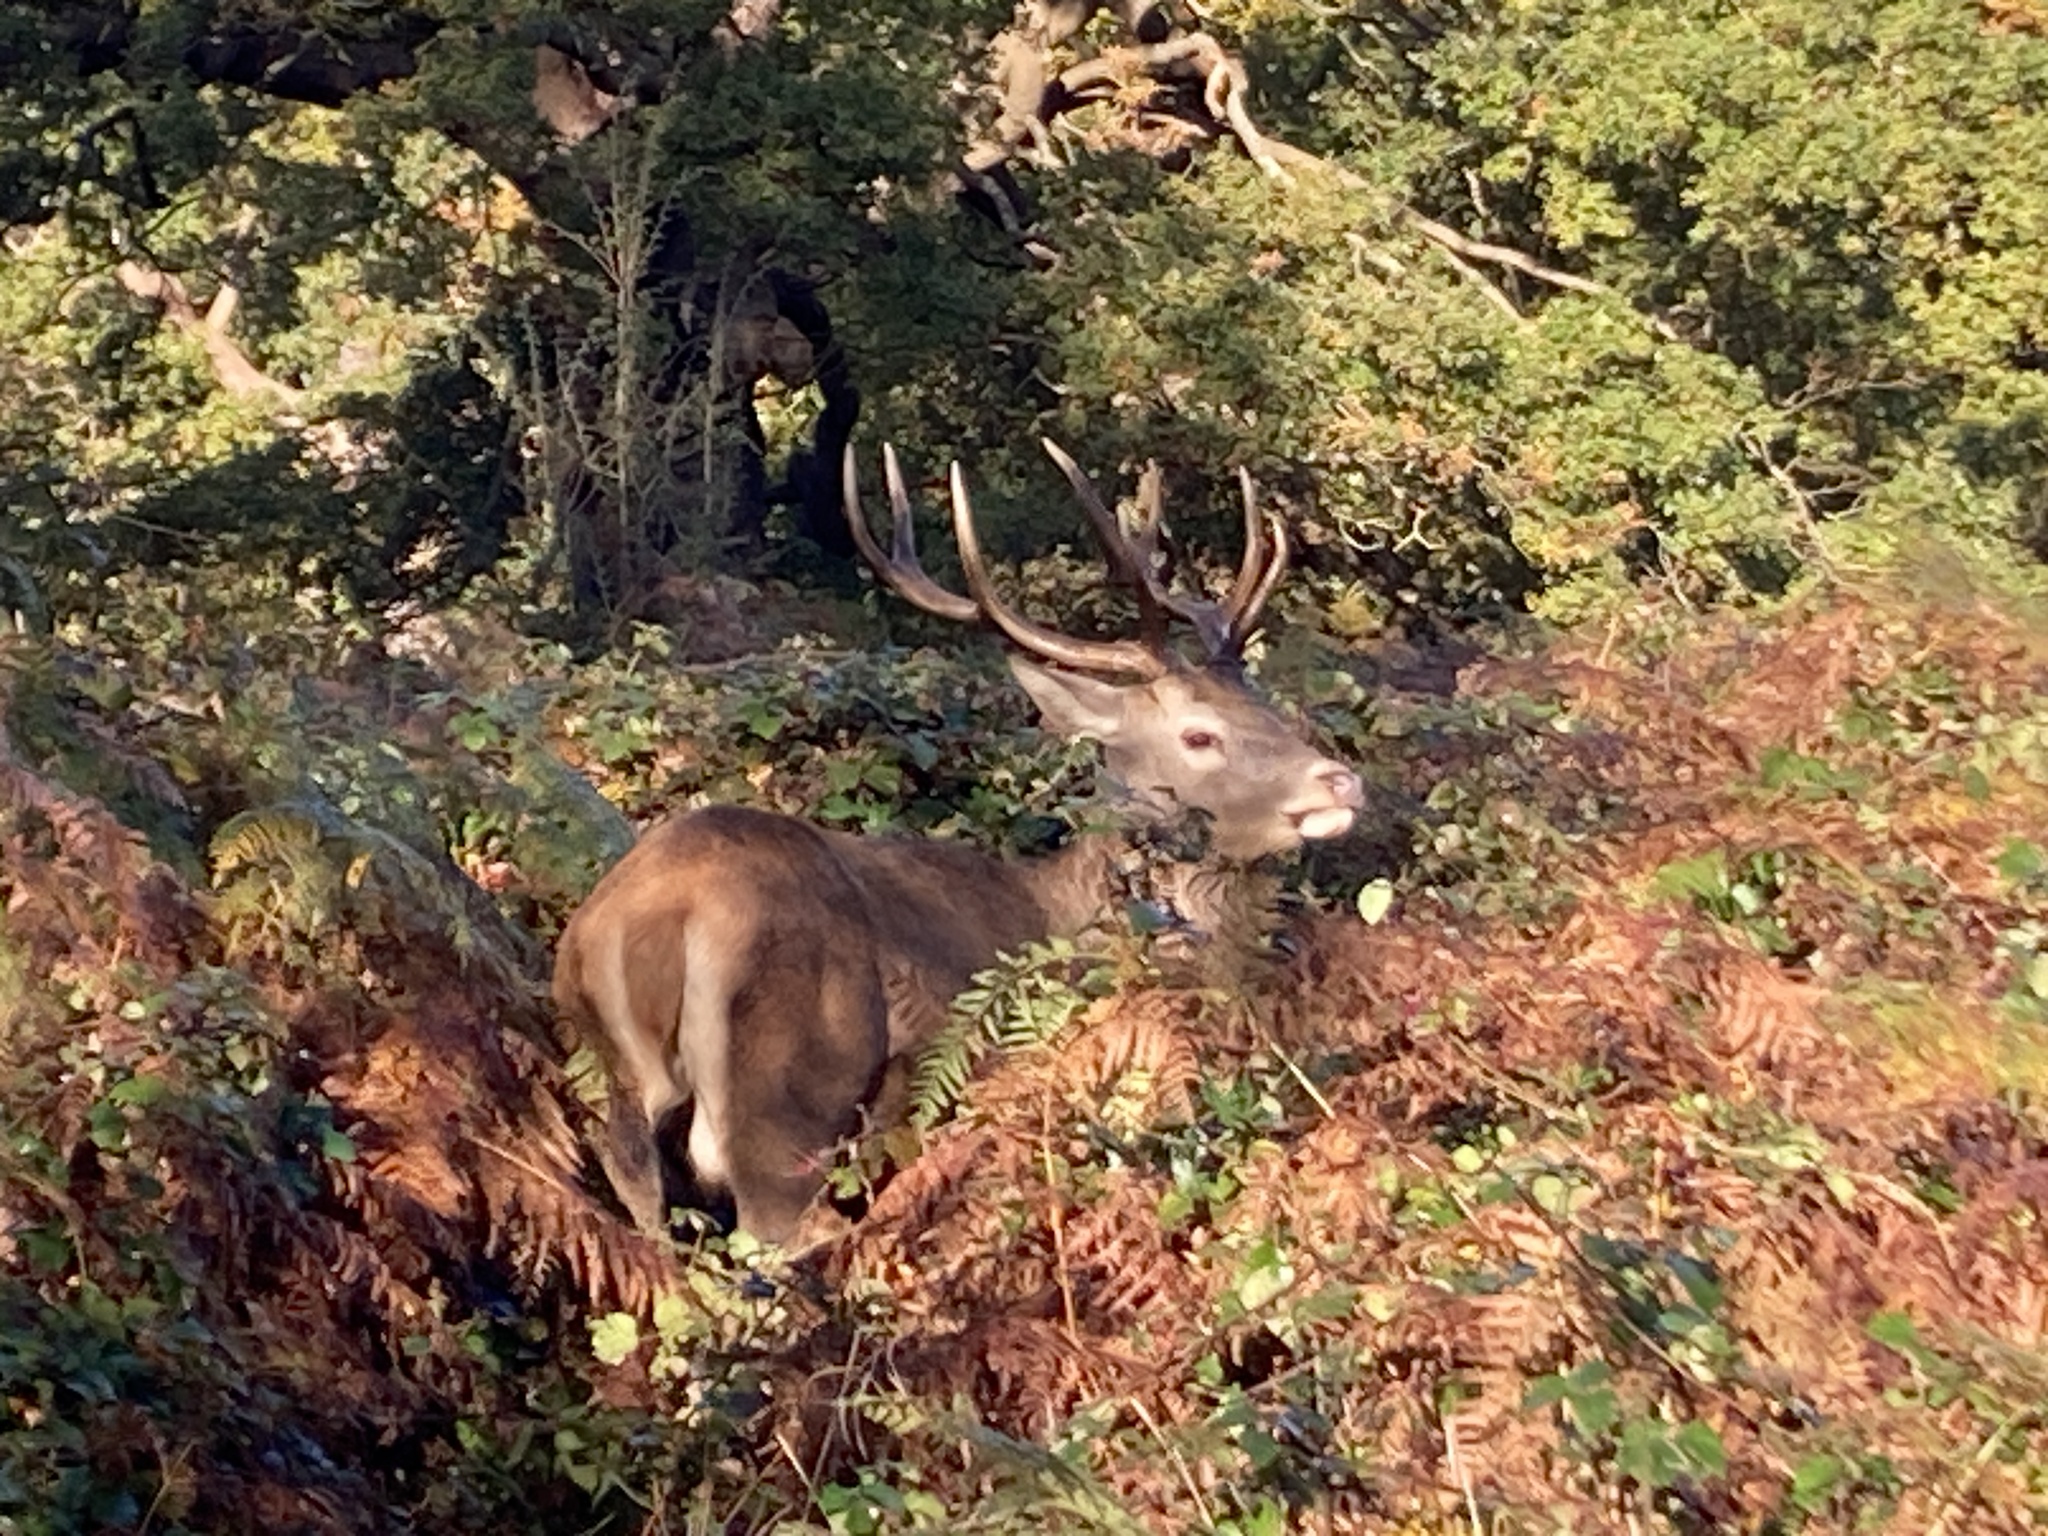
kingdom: Animalia
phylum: Chordata
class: Mammalia
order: Artiodactyla
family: Cervidae
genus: Cervus
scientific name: Cervus elaphus
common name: Red deer
